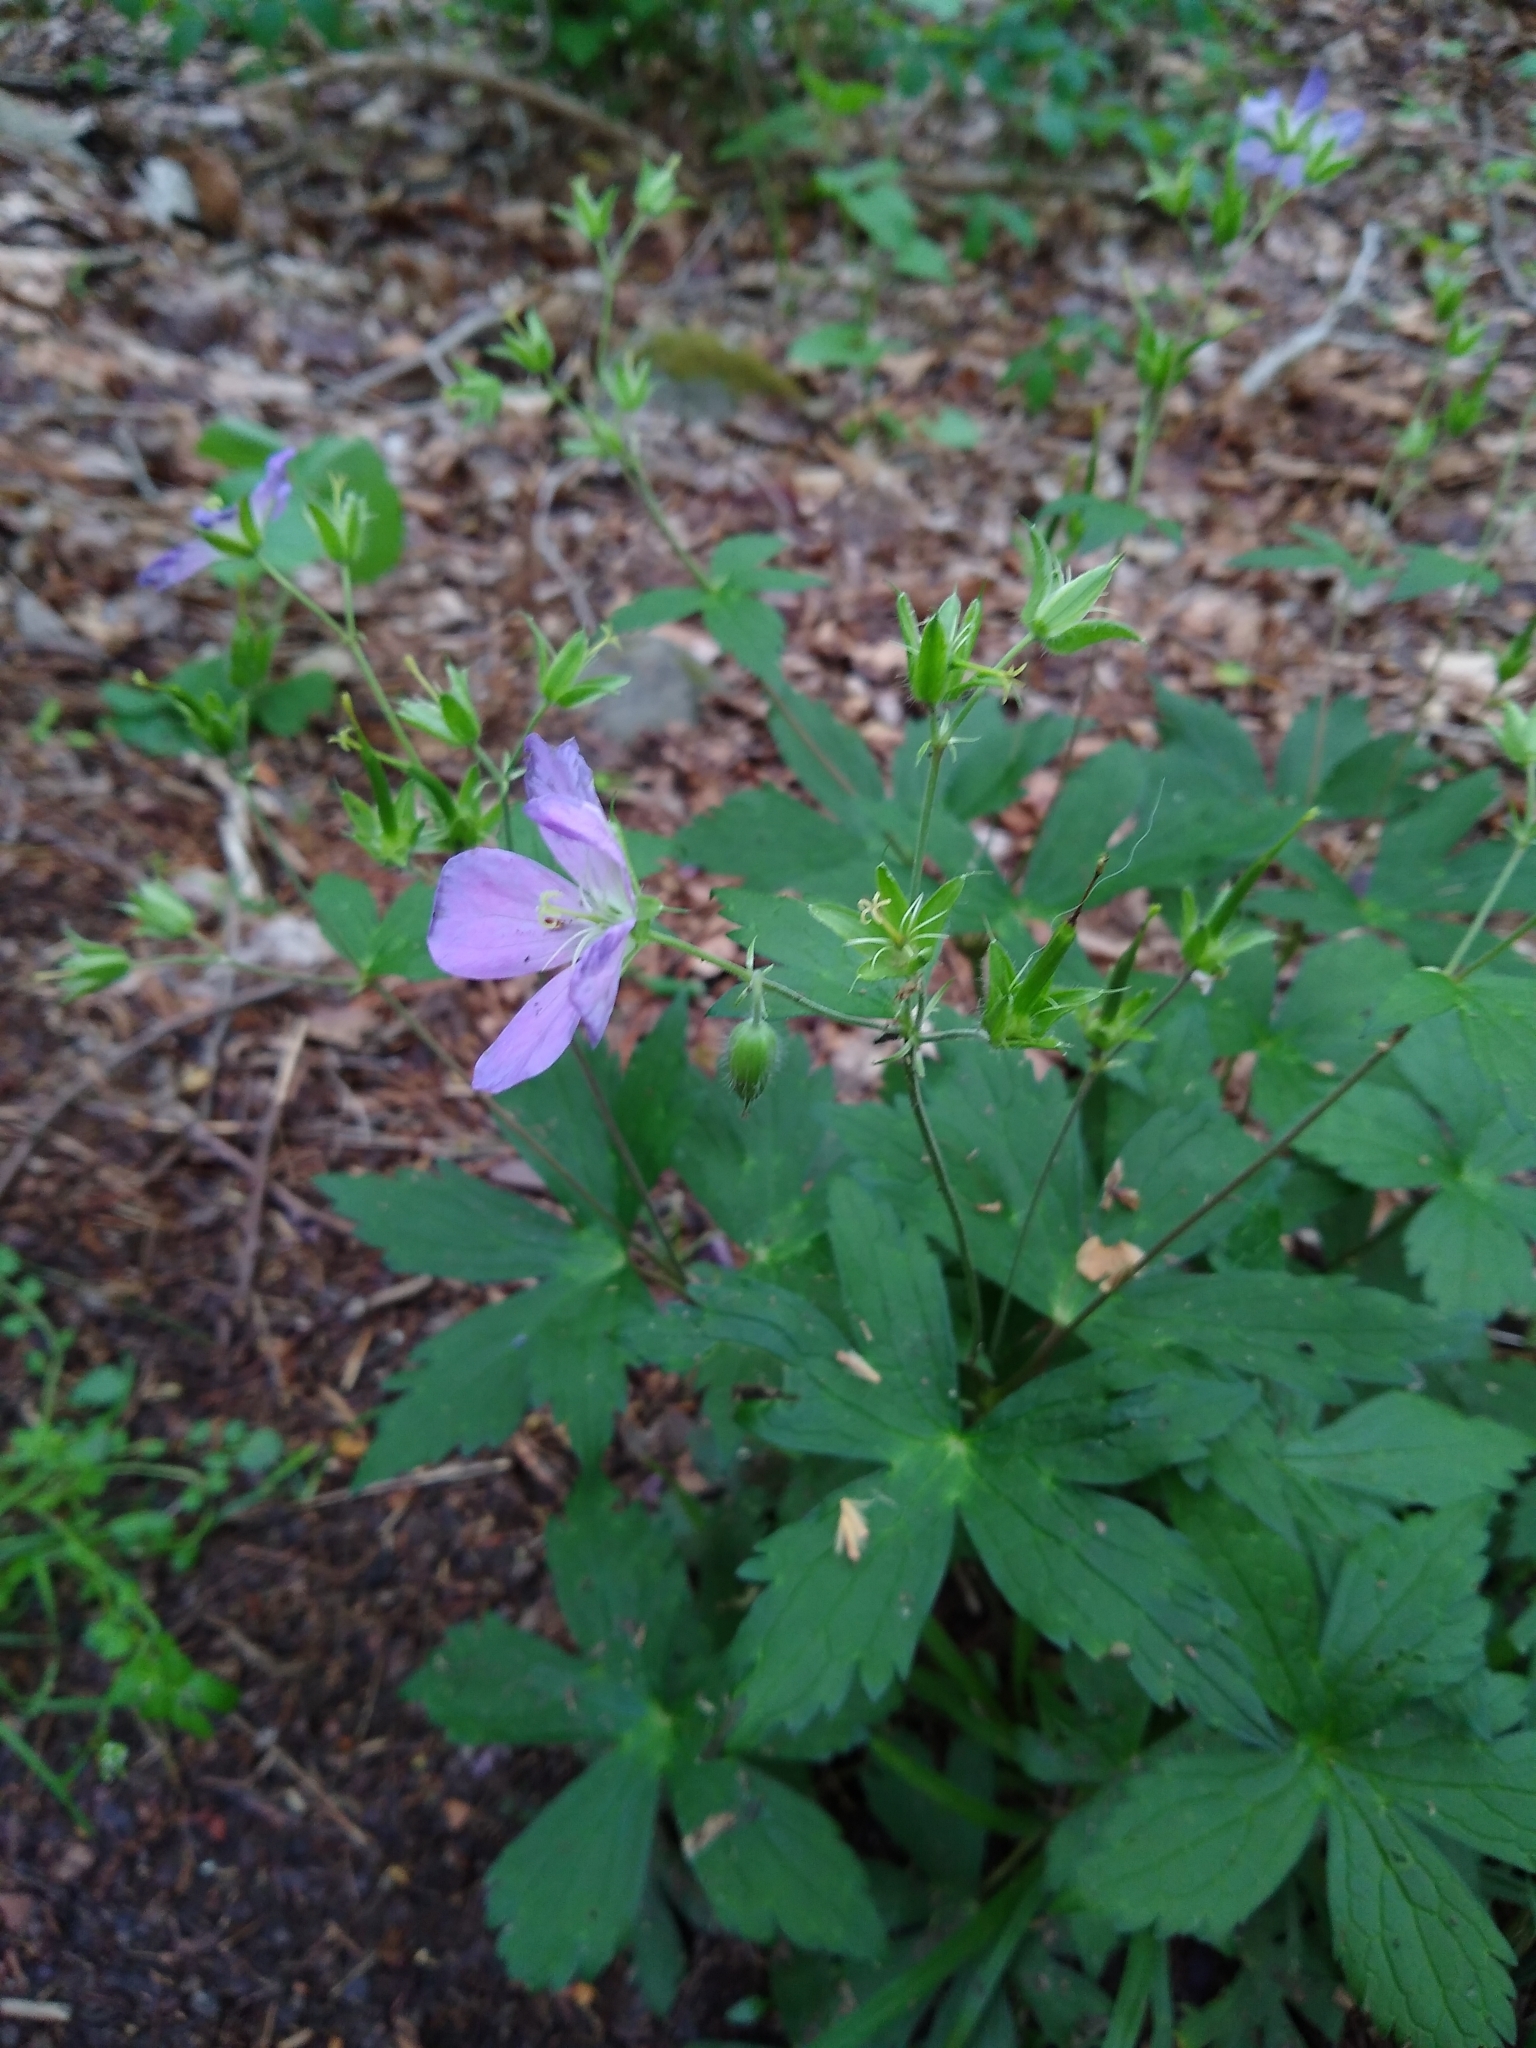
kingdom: Plantae
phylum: Tracheophyta
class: Magnoliopsida
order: Geraniales
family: Geraniaceae
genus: Geranium
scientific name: Geranium maculatum
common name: Spotted geranium
